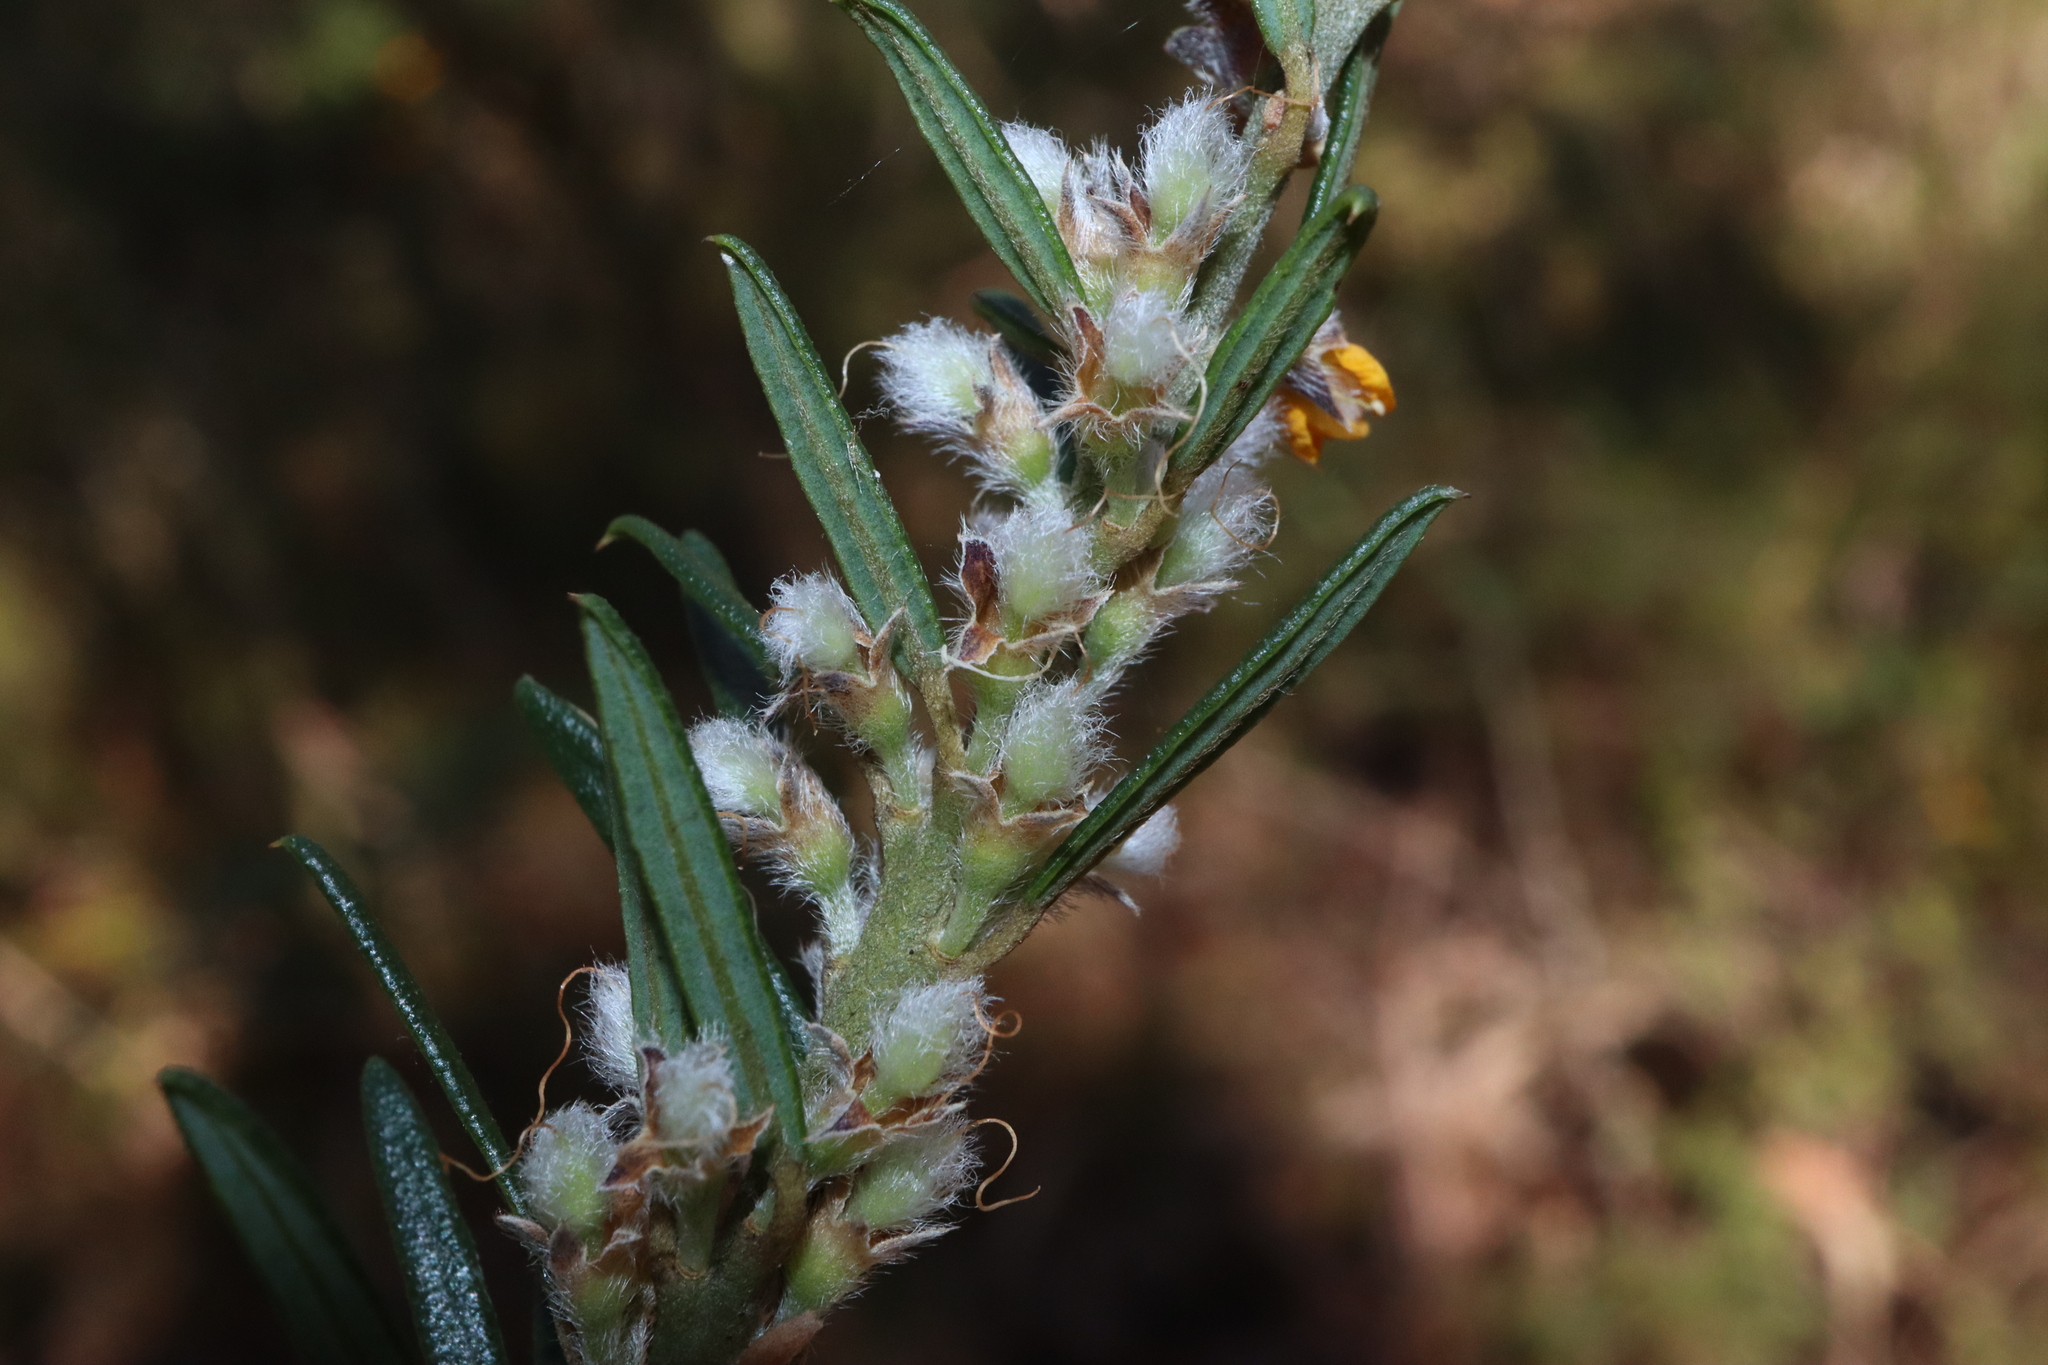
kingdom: Plantae
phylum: Tracheophyta
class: Magnoliopsida
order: Fabales
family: Fabaceae
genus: Aotus
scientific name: Aotus ericoides
